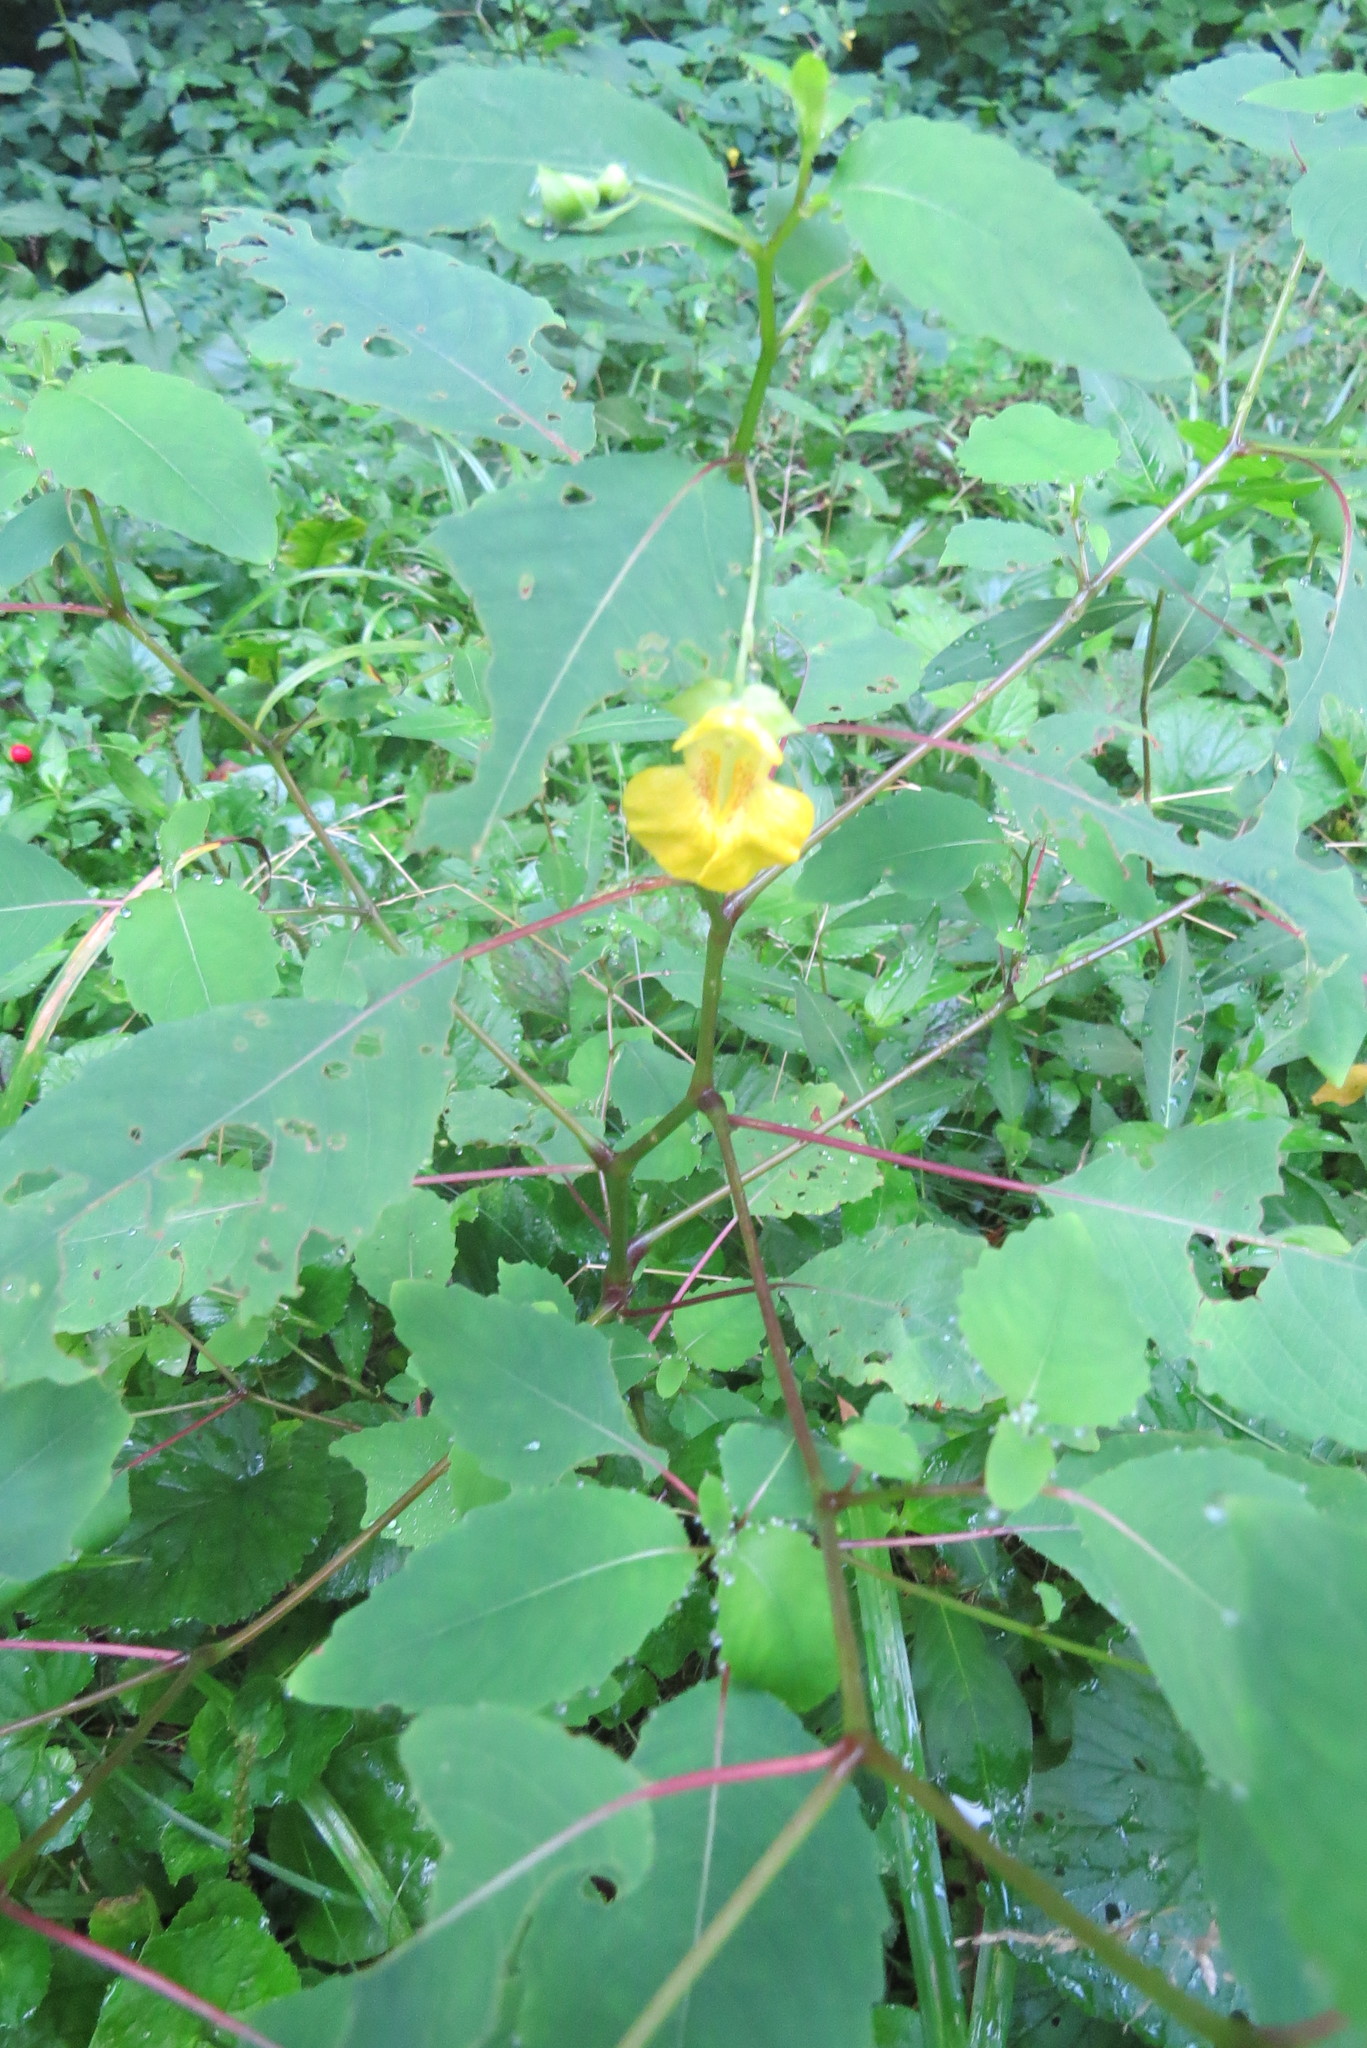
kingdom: Plantae
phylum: Tracheophyta
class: Magnoliopsida
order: Ericales
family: Balsaminaceae
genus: Impatiens
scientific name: Impatiens pallida
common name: Pale snapweed
